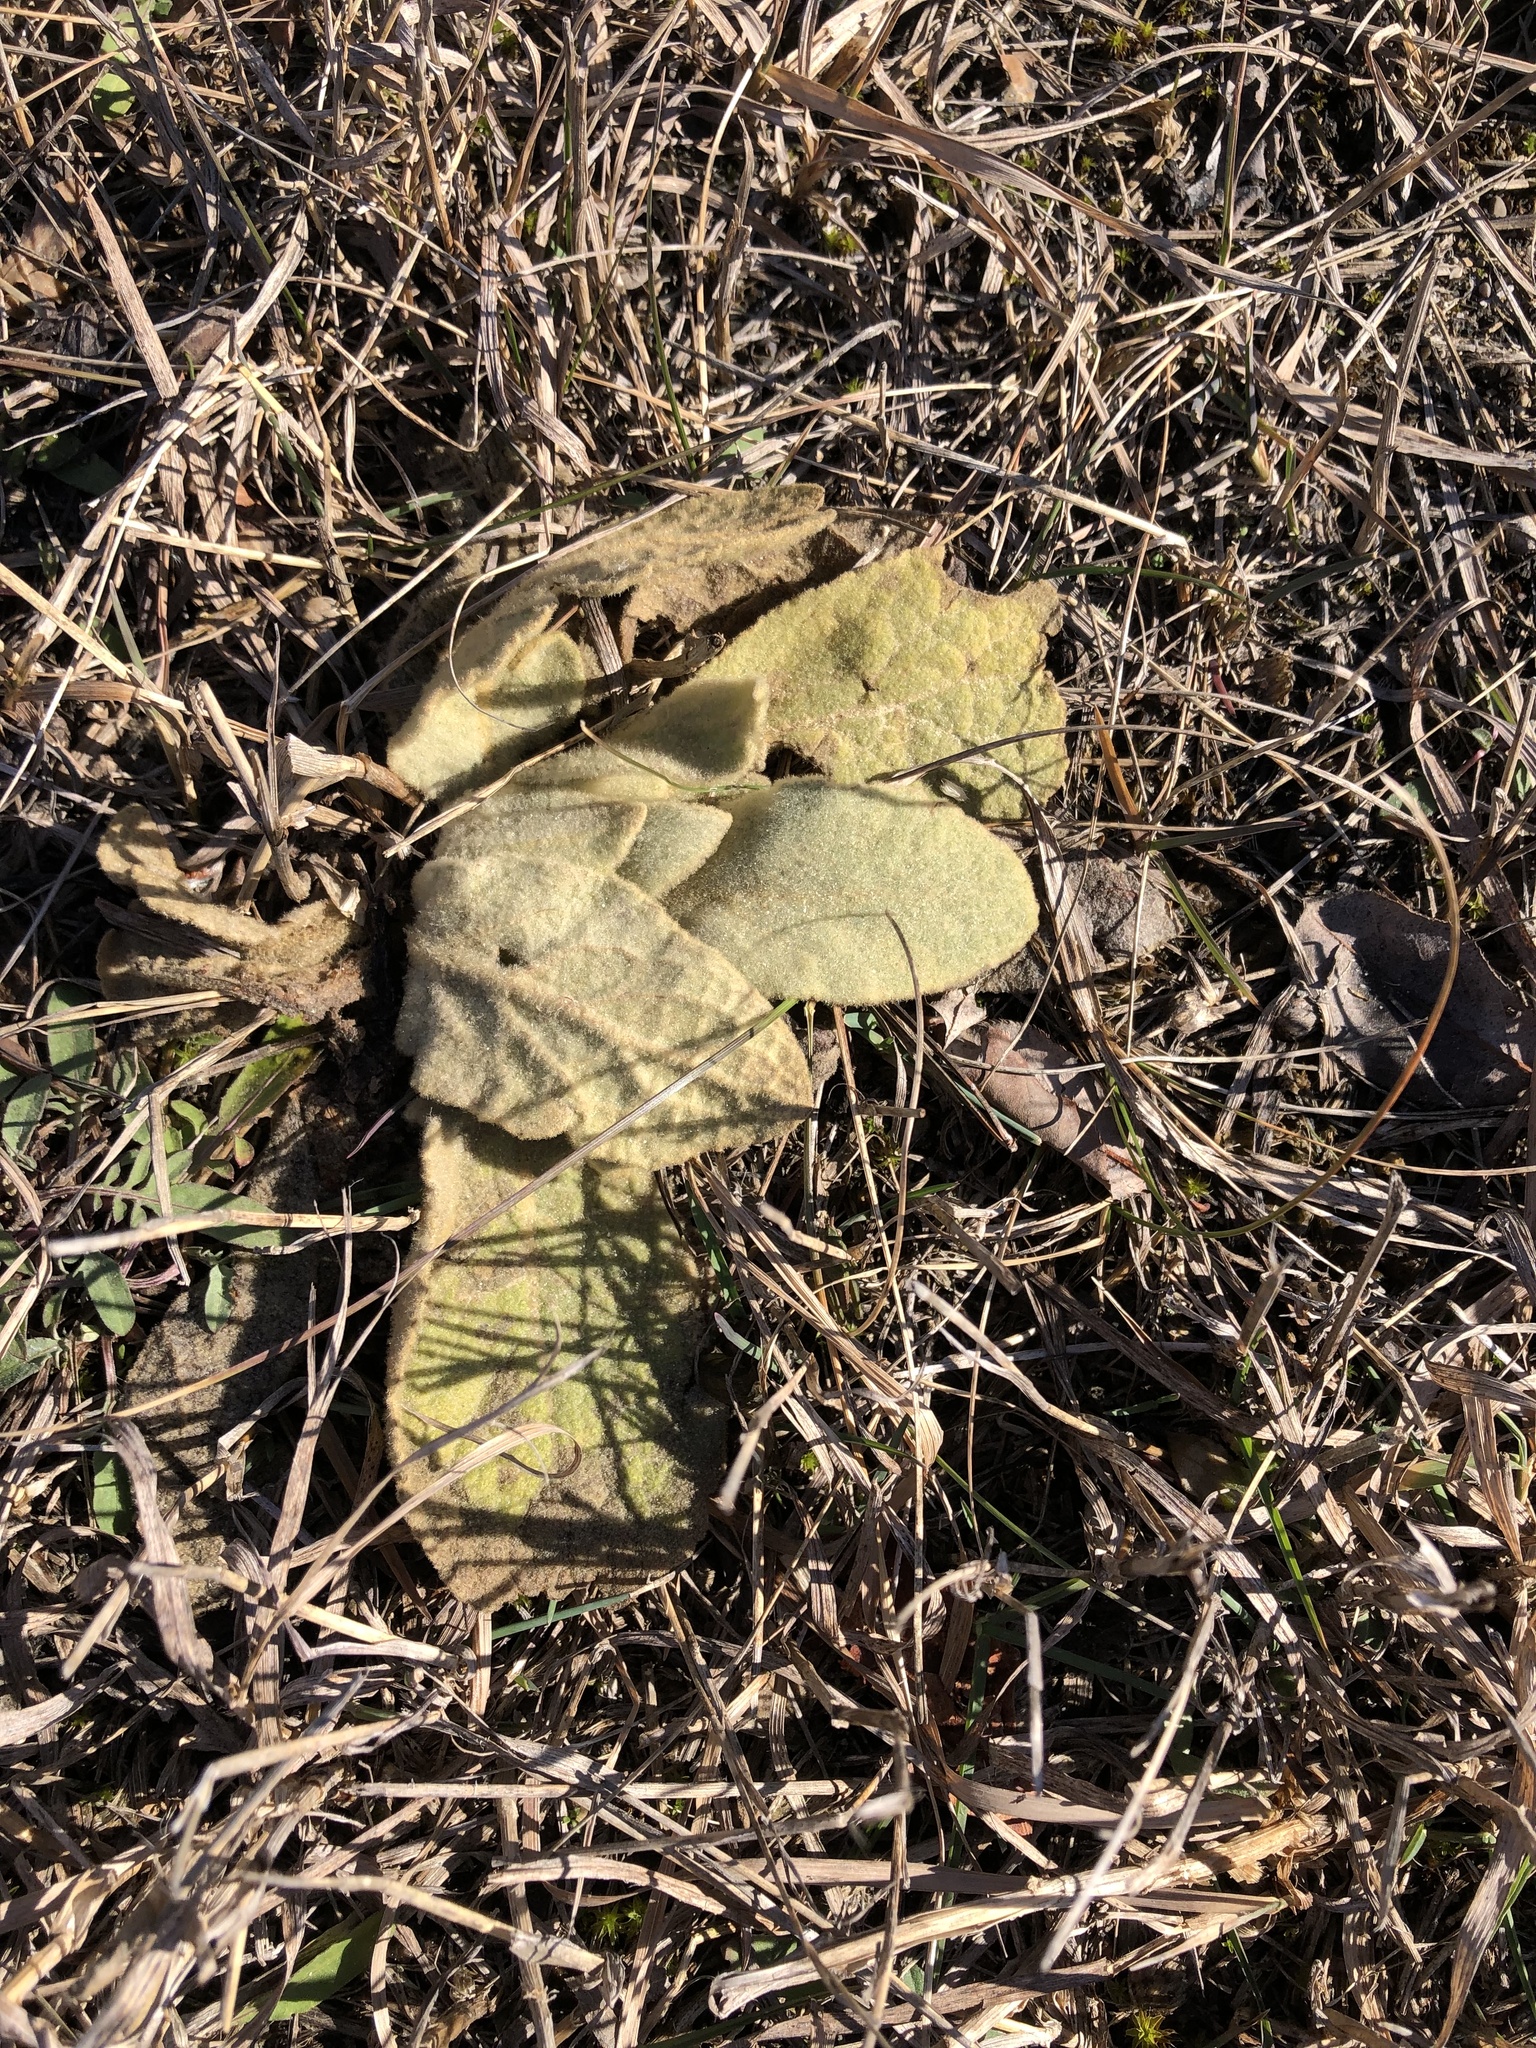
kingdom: Plantae
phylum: Tracheophyta
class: Magnoliopsida
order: Lamiales
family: Scrophulariaceae
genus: Verbascum
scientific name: Verbascum thapsus
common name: Common mullein
